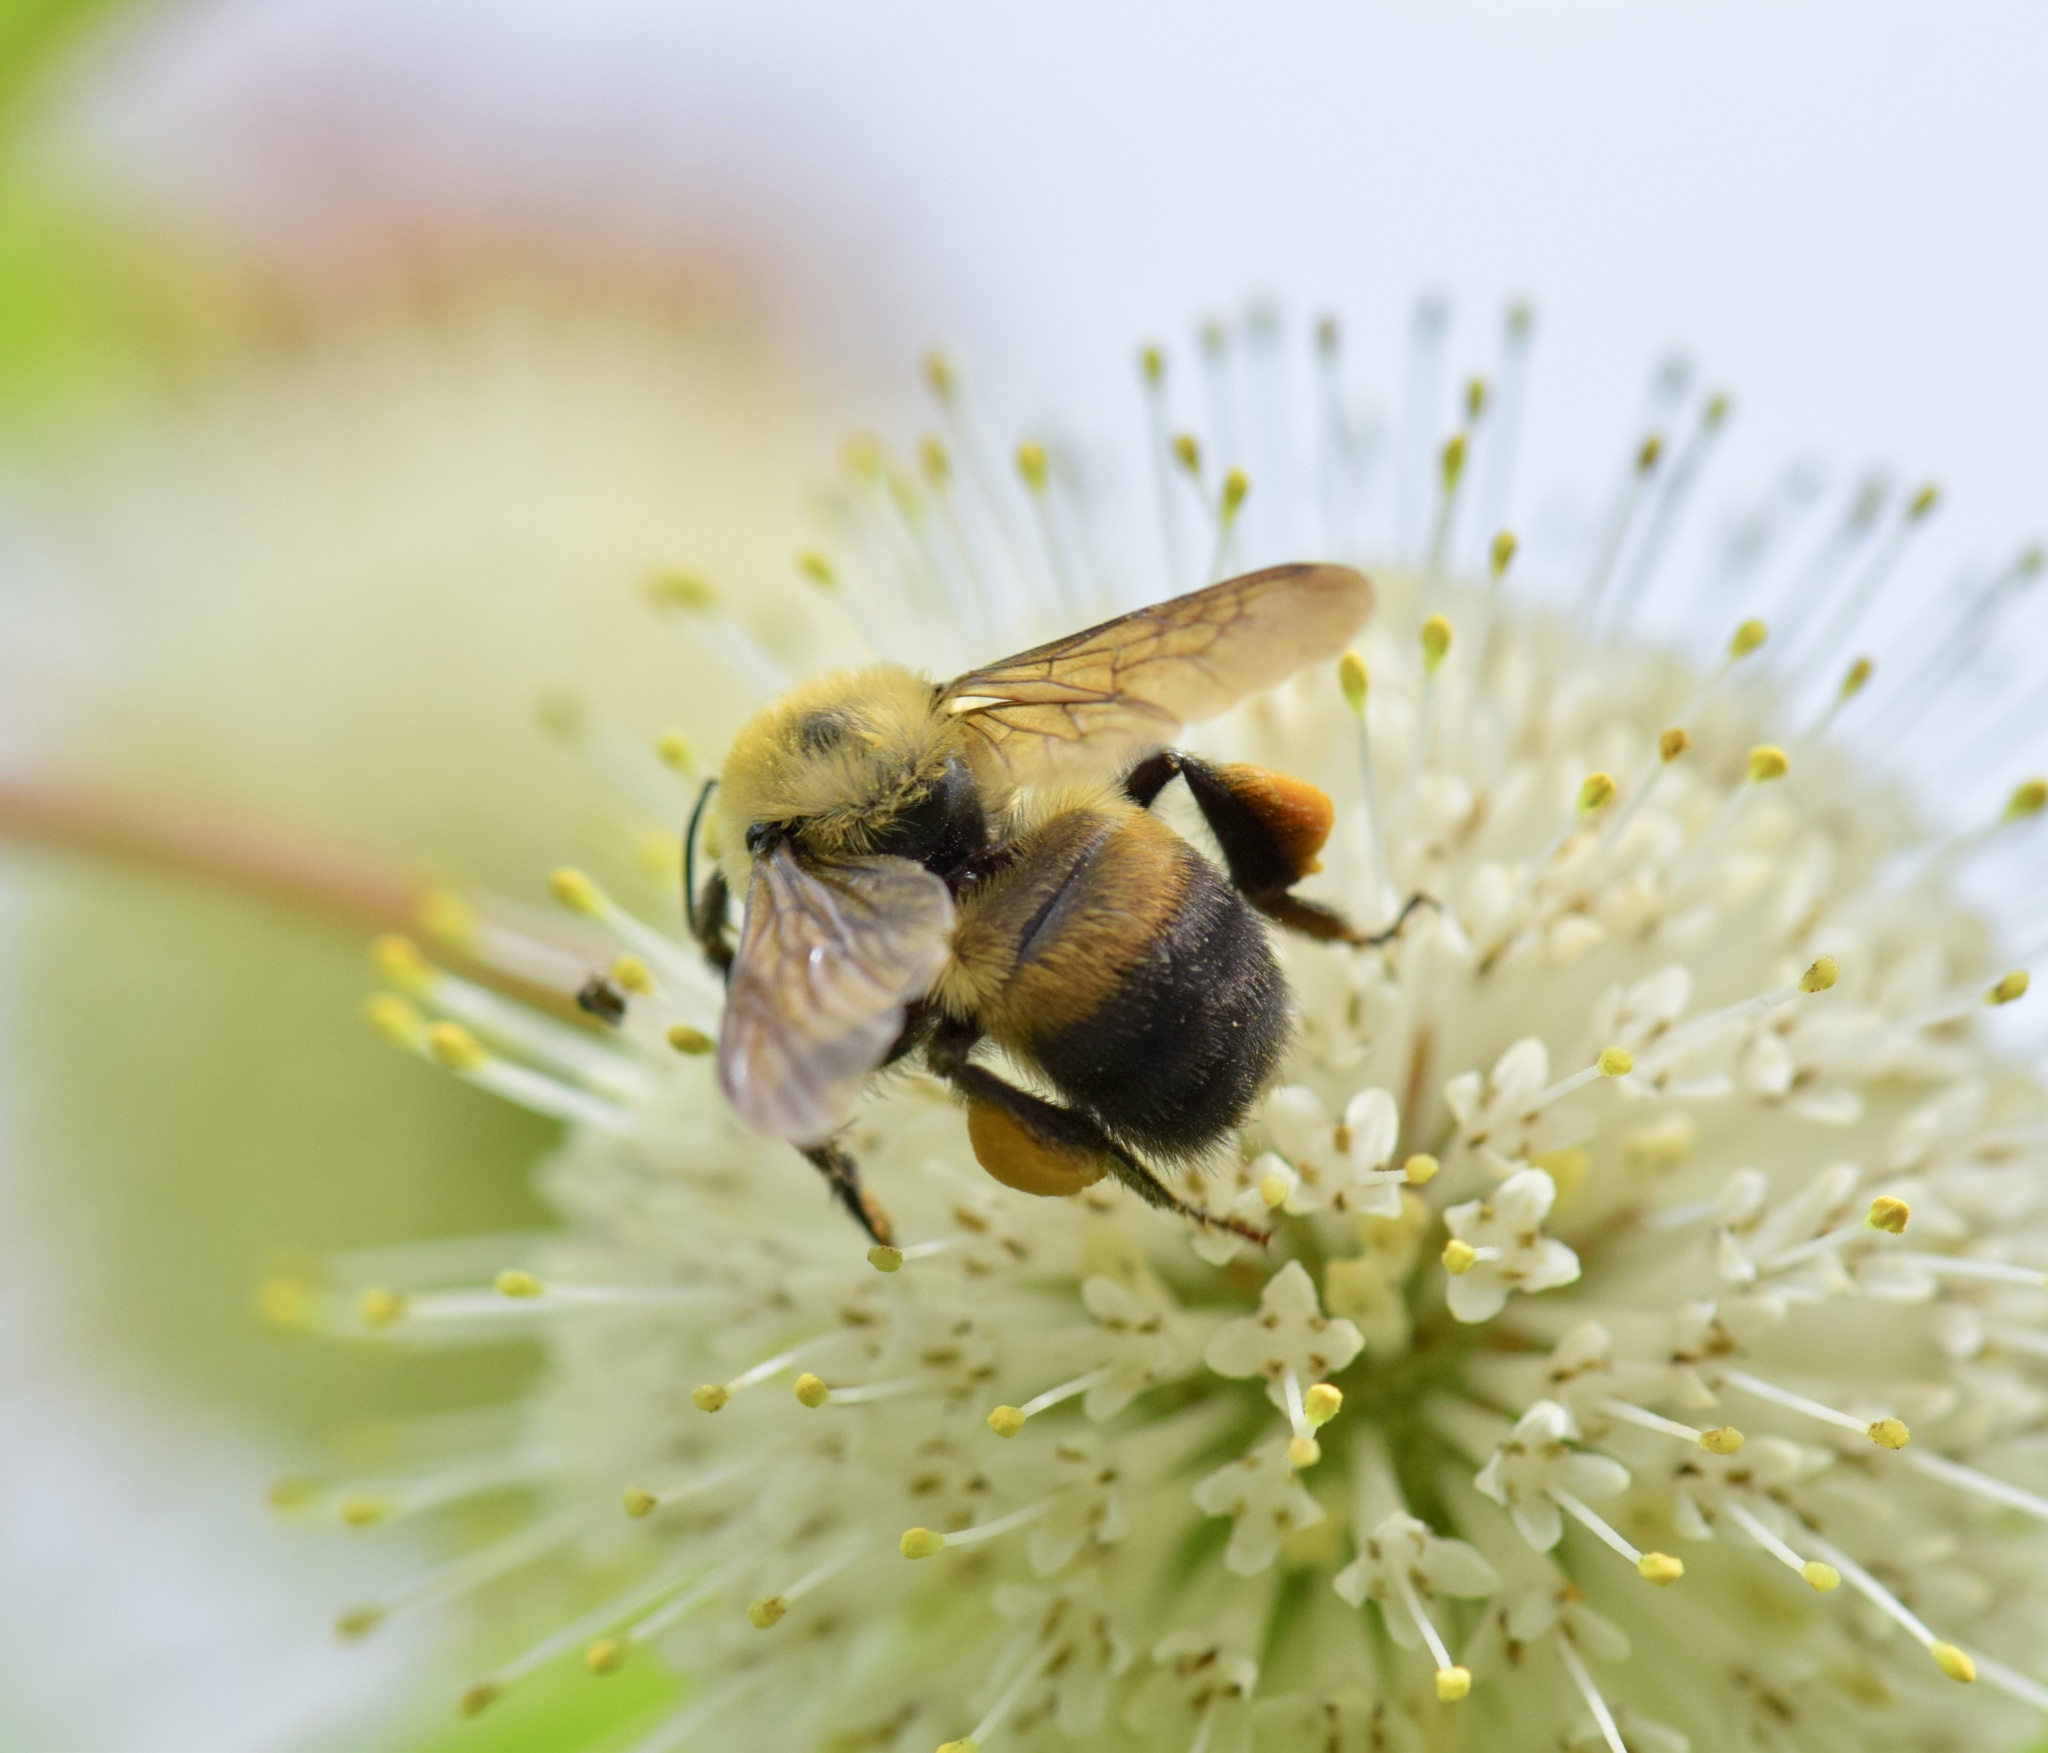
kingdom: Animalia
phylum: Arthropoda
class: Insecta
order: Hymenoptera
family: Apidae
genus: Bombus
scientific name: Bombus griseocollis
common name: Brown-belted bumble bee
